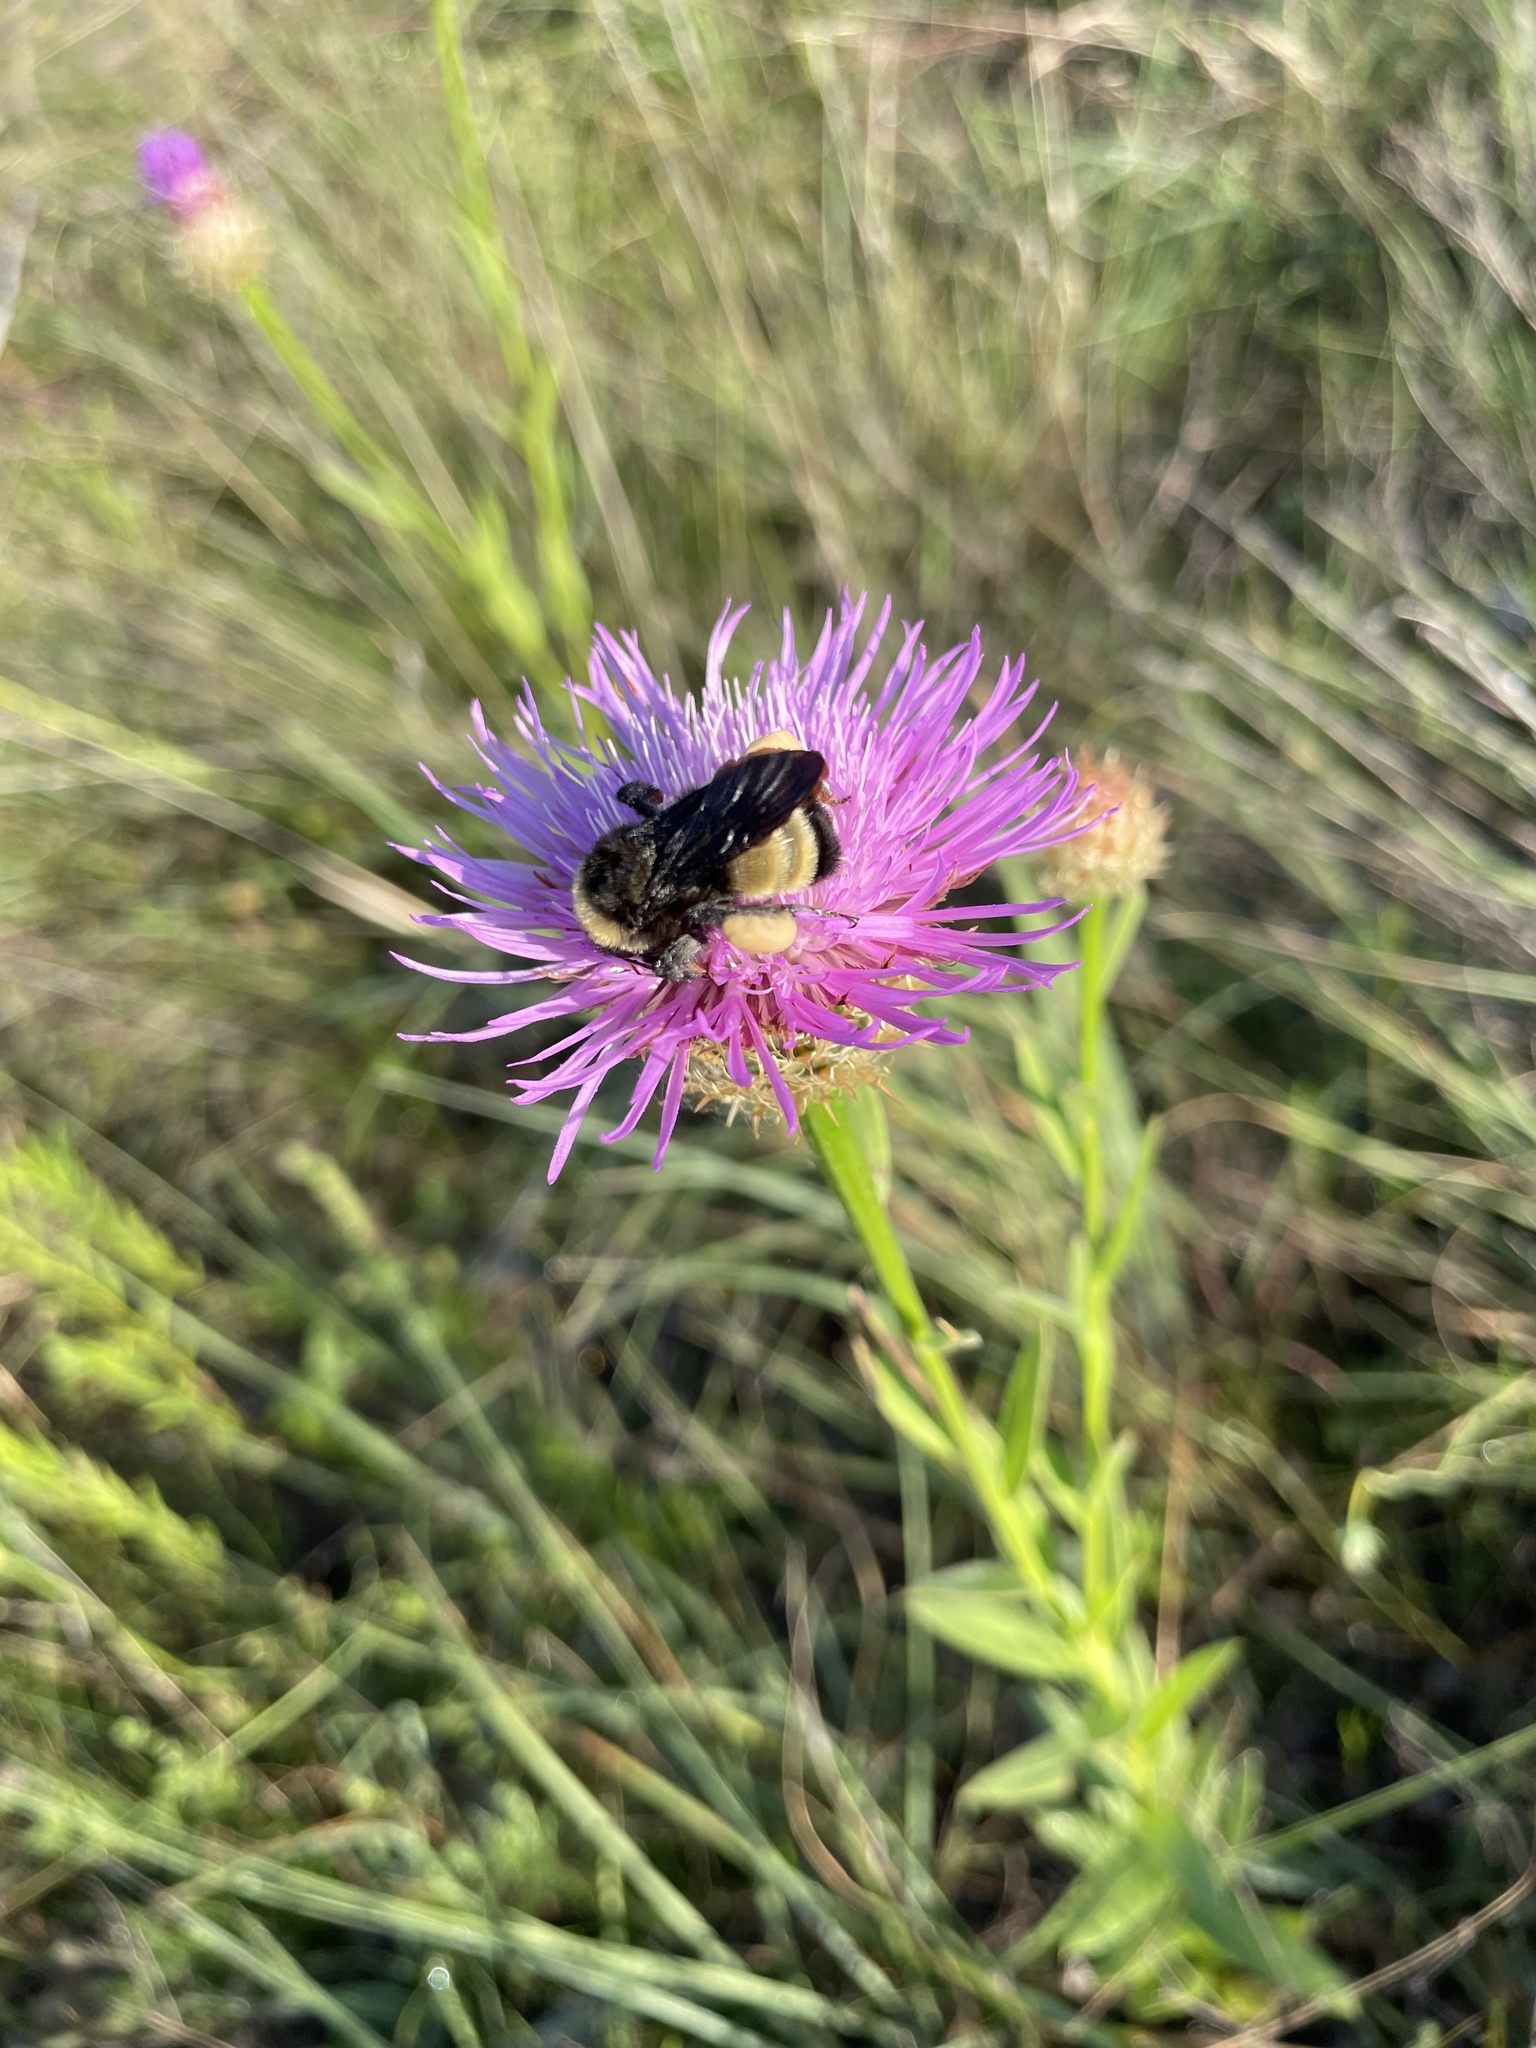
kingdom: Animalia
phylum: Arthropoda
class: Insecta
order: Hymenoptera
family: Apidae
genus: Bombus
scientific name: Bombus pensylvanicus
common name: Bumble bee
